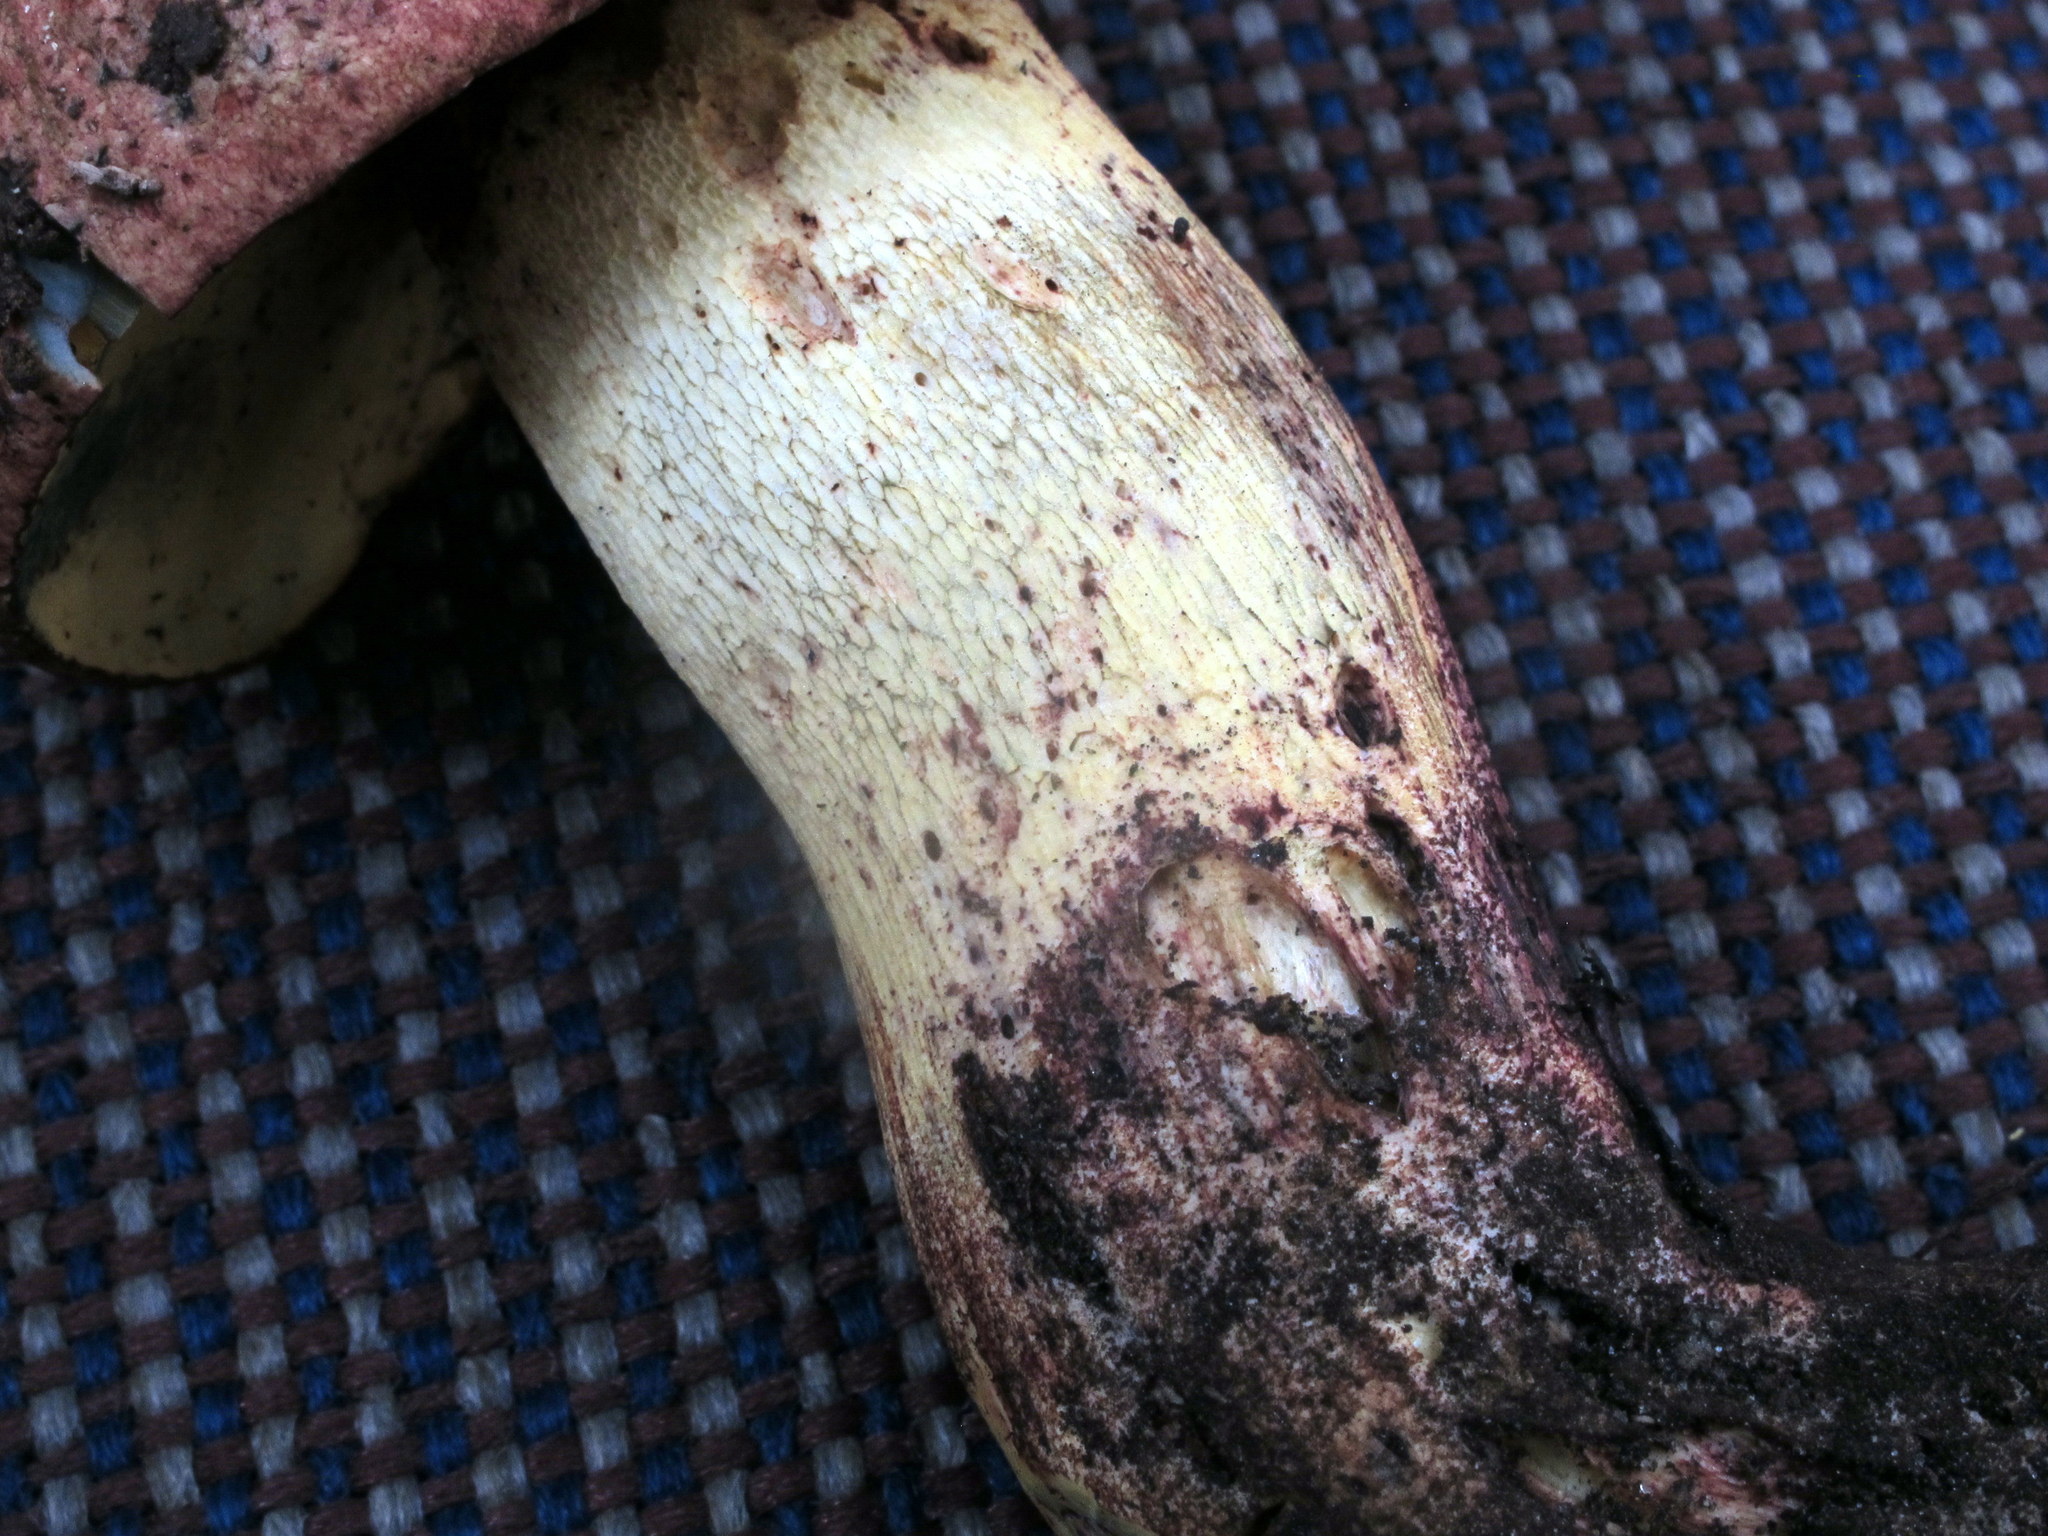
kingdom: Fungi
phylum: Basidiomycota
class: Agaricomycetes
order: Boletales
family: Boletaceae
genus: Boletus
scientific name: Boletus speciosus
